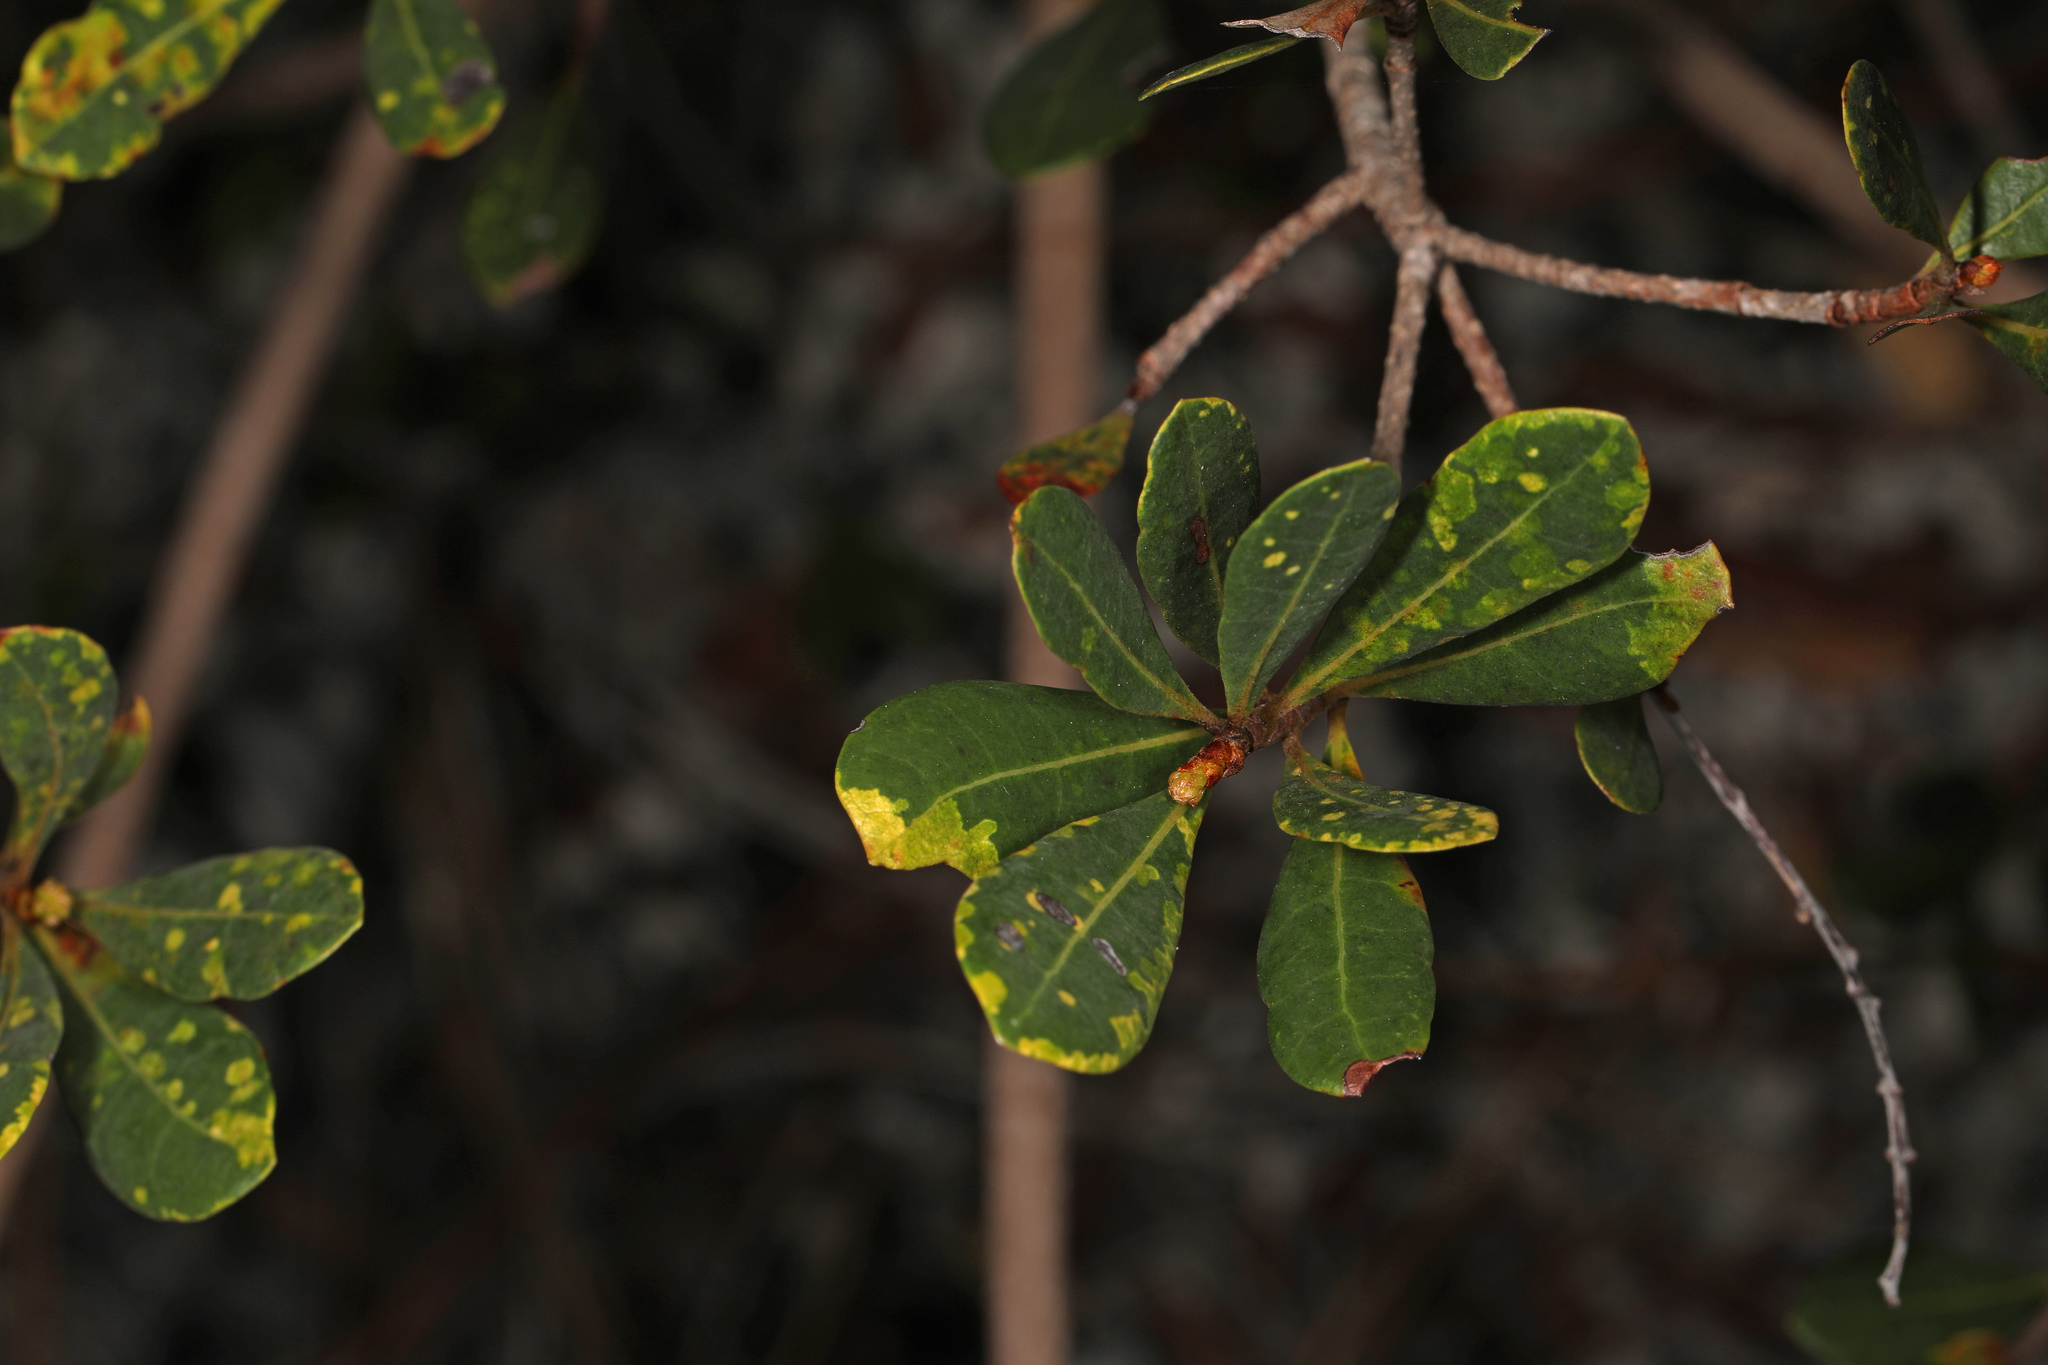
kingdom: Plantae
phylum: Tracheophyta
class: Magnoliopsida
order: Malpighiales
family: Malpighiaceae
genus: Byrsonima
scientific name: Byrsonima lucida
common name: Clam-cherry
